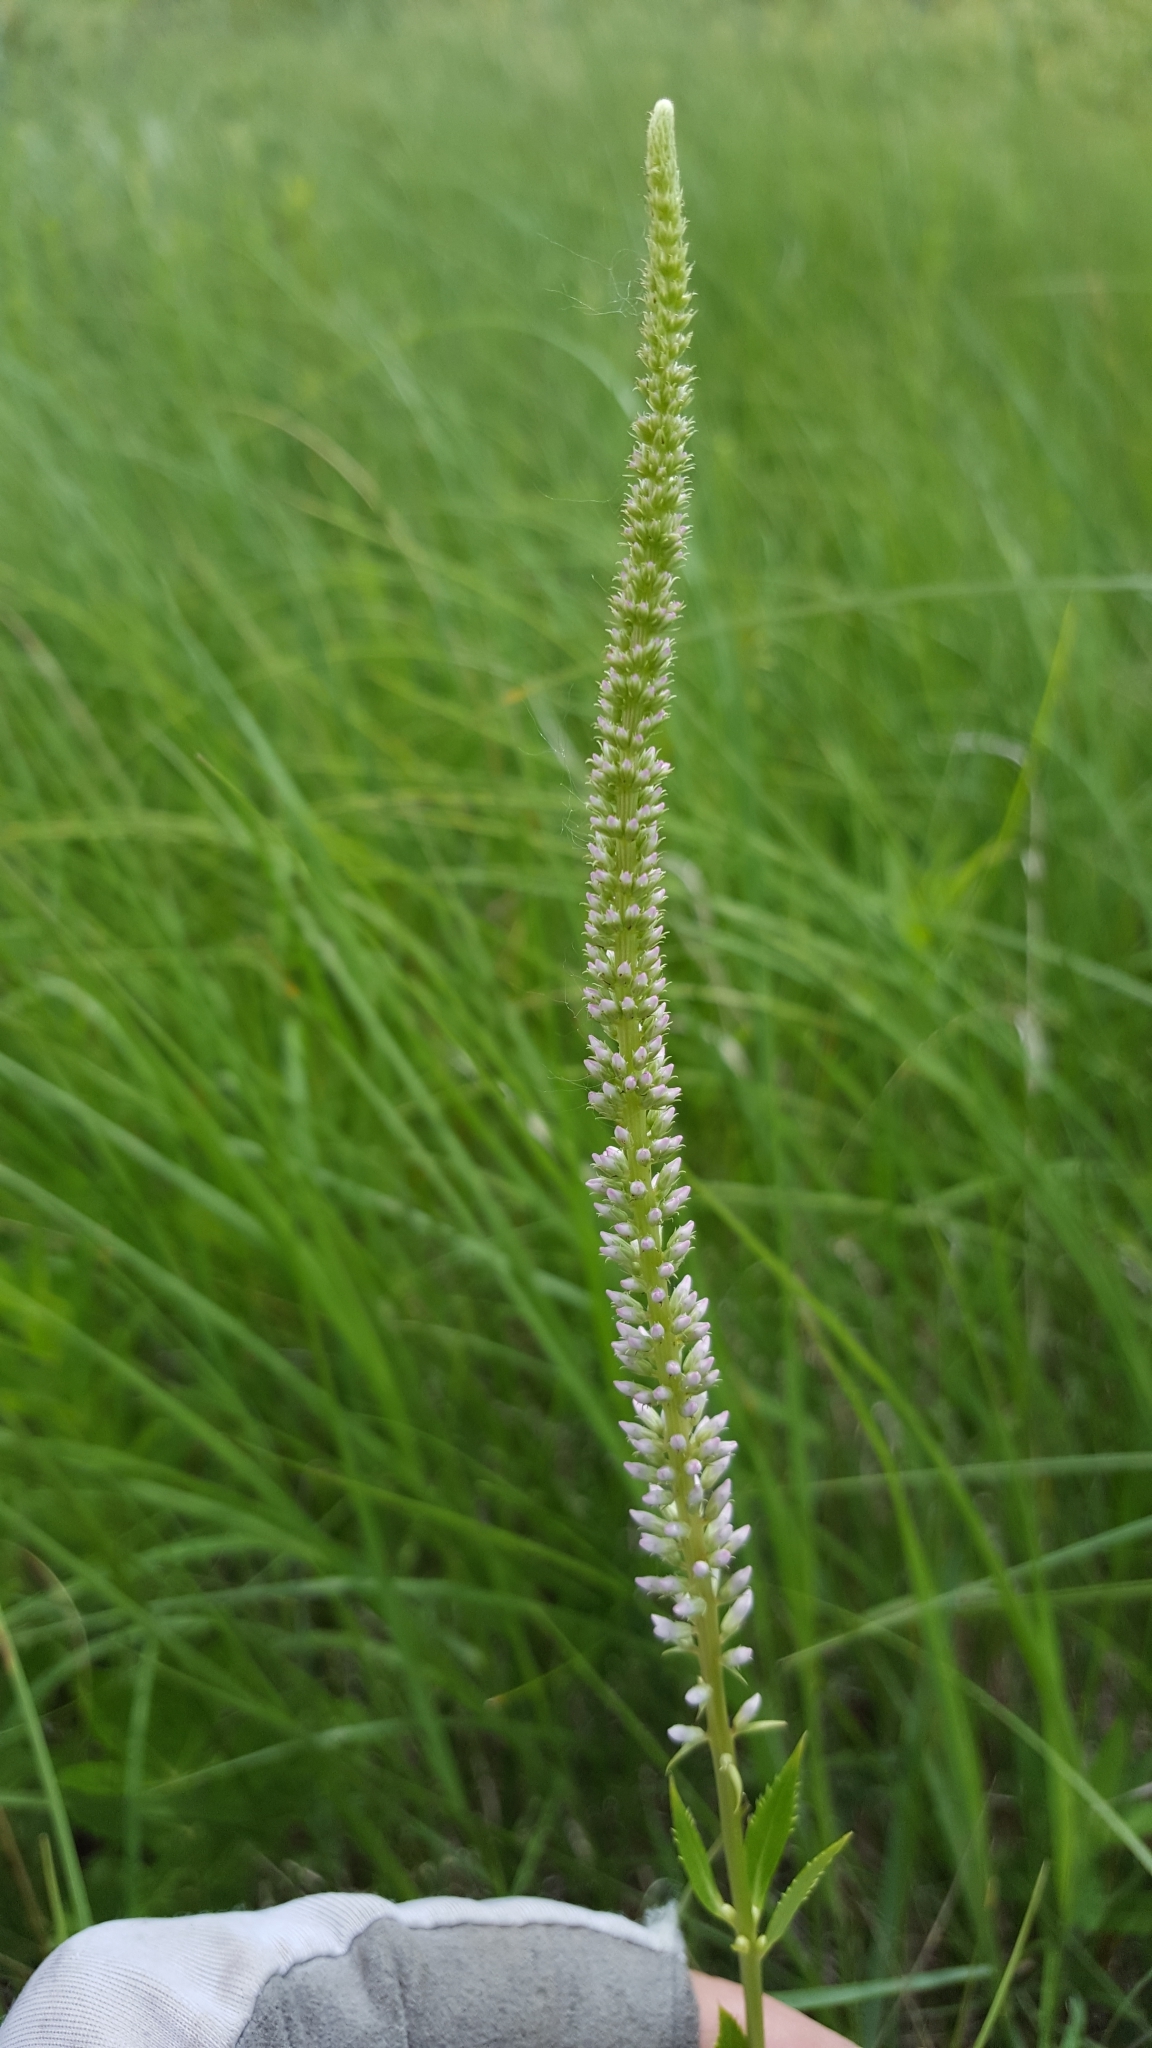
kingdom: Plantae
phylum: Tracheophyta
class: Magnoliopsida
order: Lamiales
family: Plantaginaceae
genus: Veronicastrum
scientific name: Veronicastrum virginicum
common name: Blackroot
